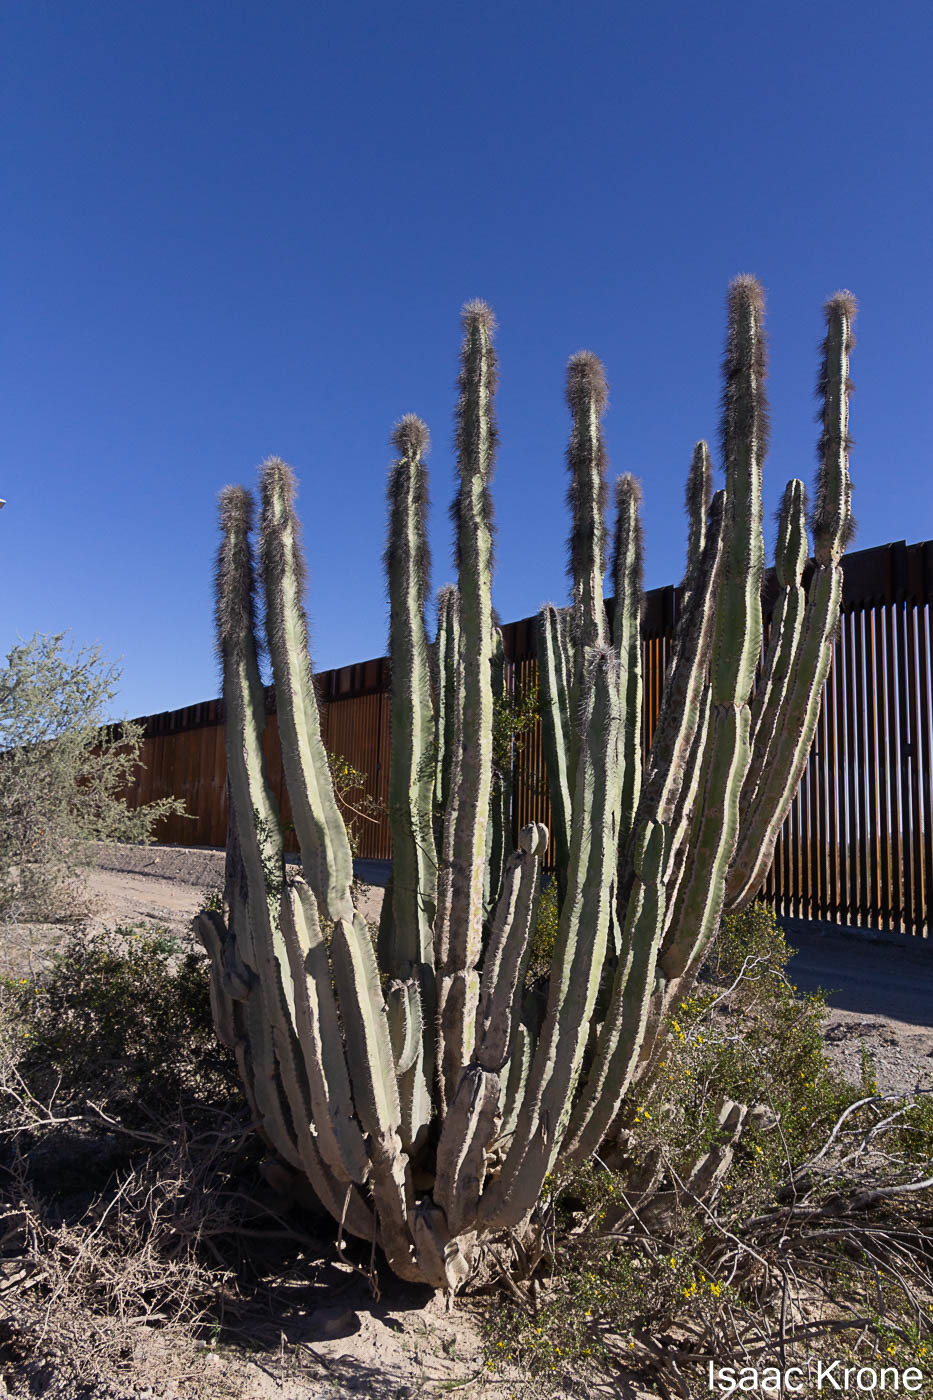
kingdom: Plantae
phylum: Tracheophyta
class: Magnoliopsida
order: Caryophyllales
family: Cactaceae
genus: Pachycereus
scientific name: Pachycereus schottii
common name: Senita cactus
